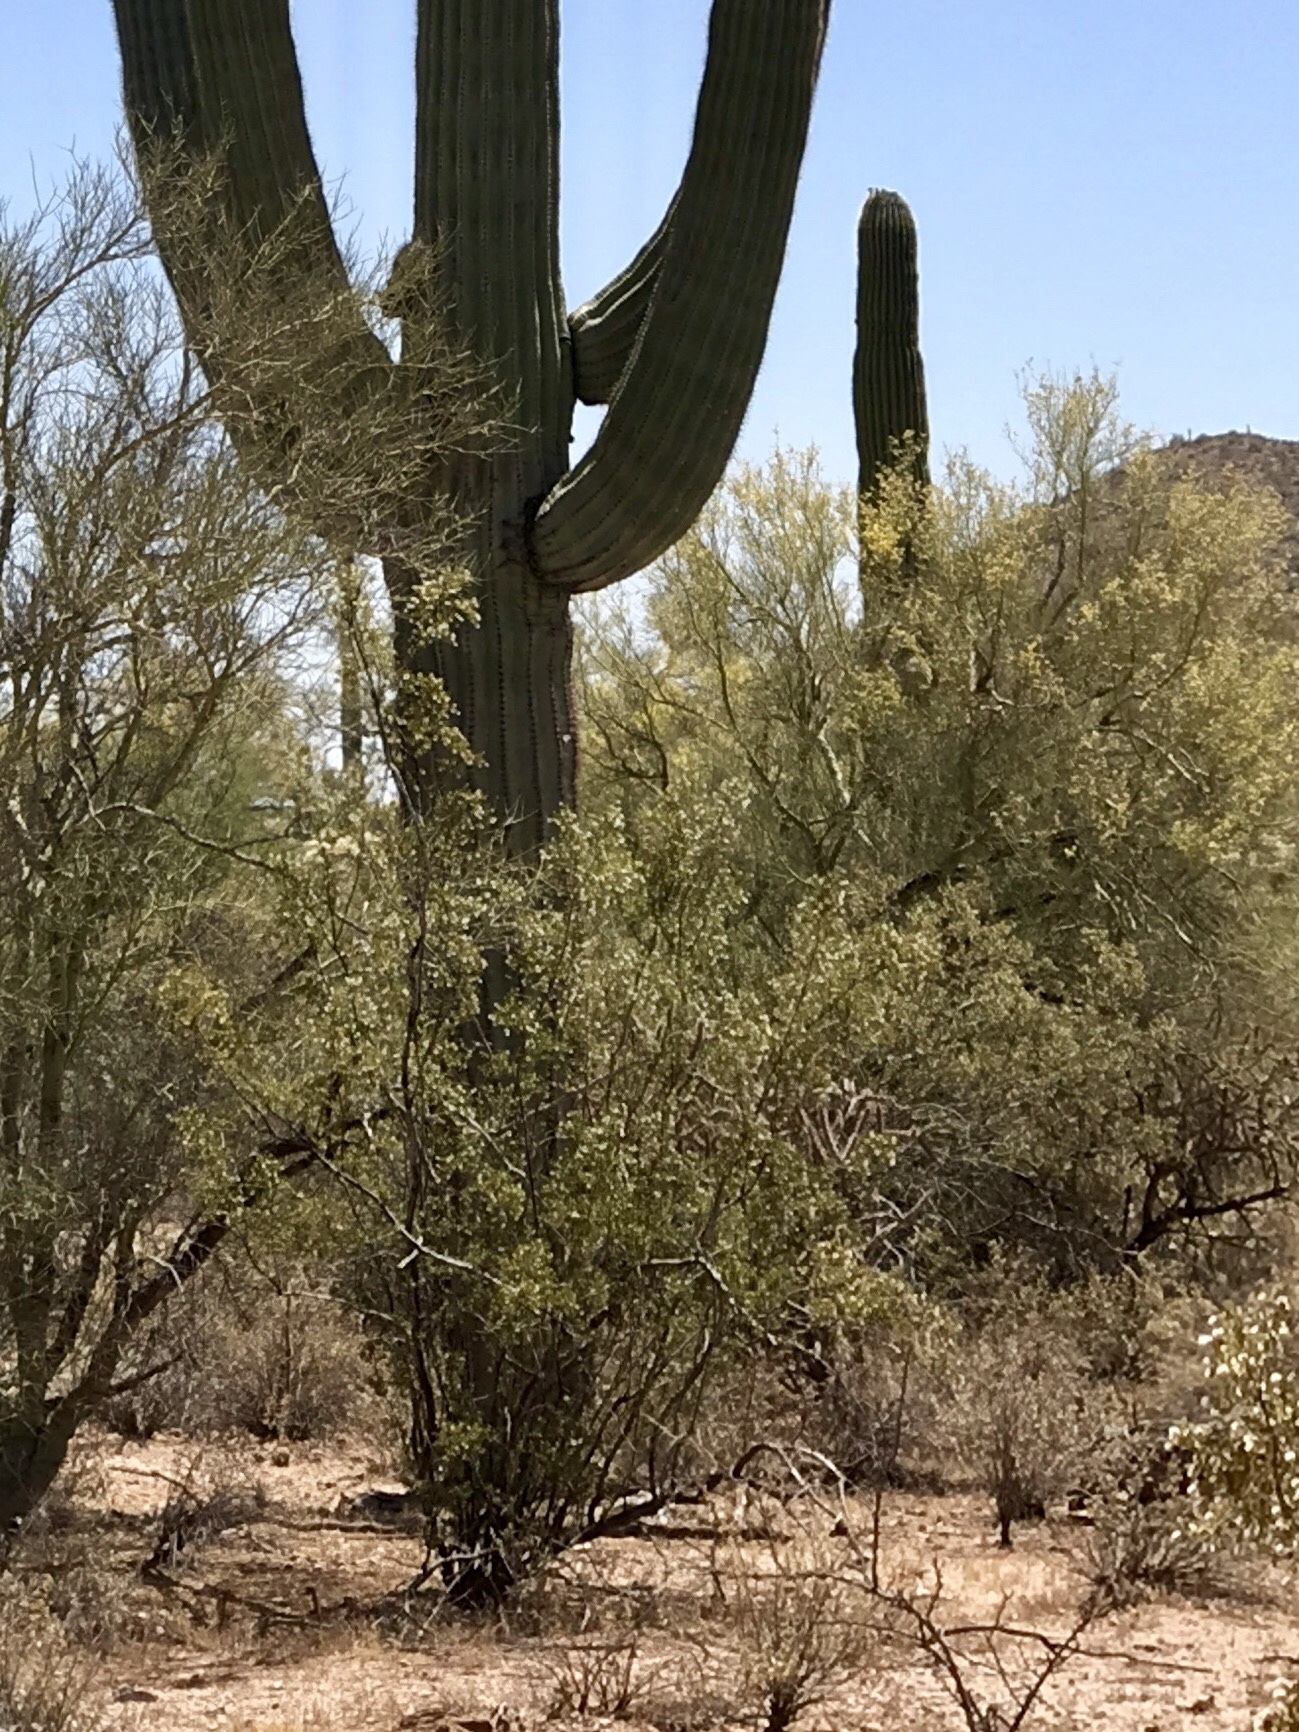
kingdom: Plantae
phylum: Tracheophyta
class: Magnoliopsida
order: Zygophyllales
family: Zygophyllaceae
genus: Larrea
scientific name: Larrea tridentata
